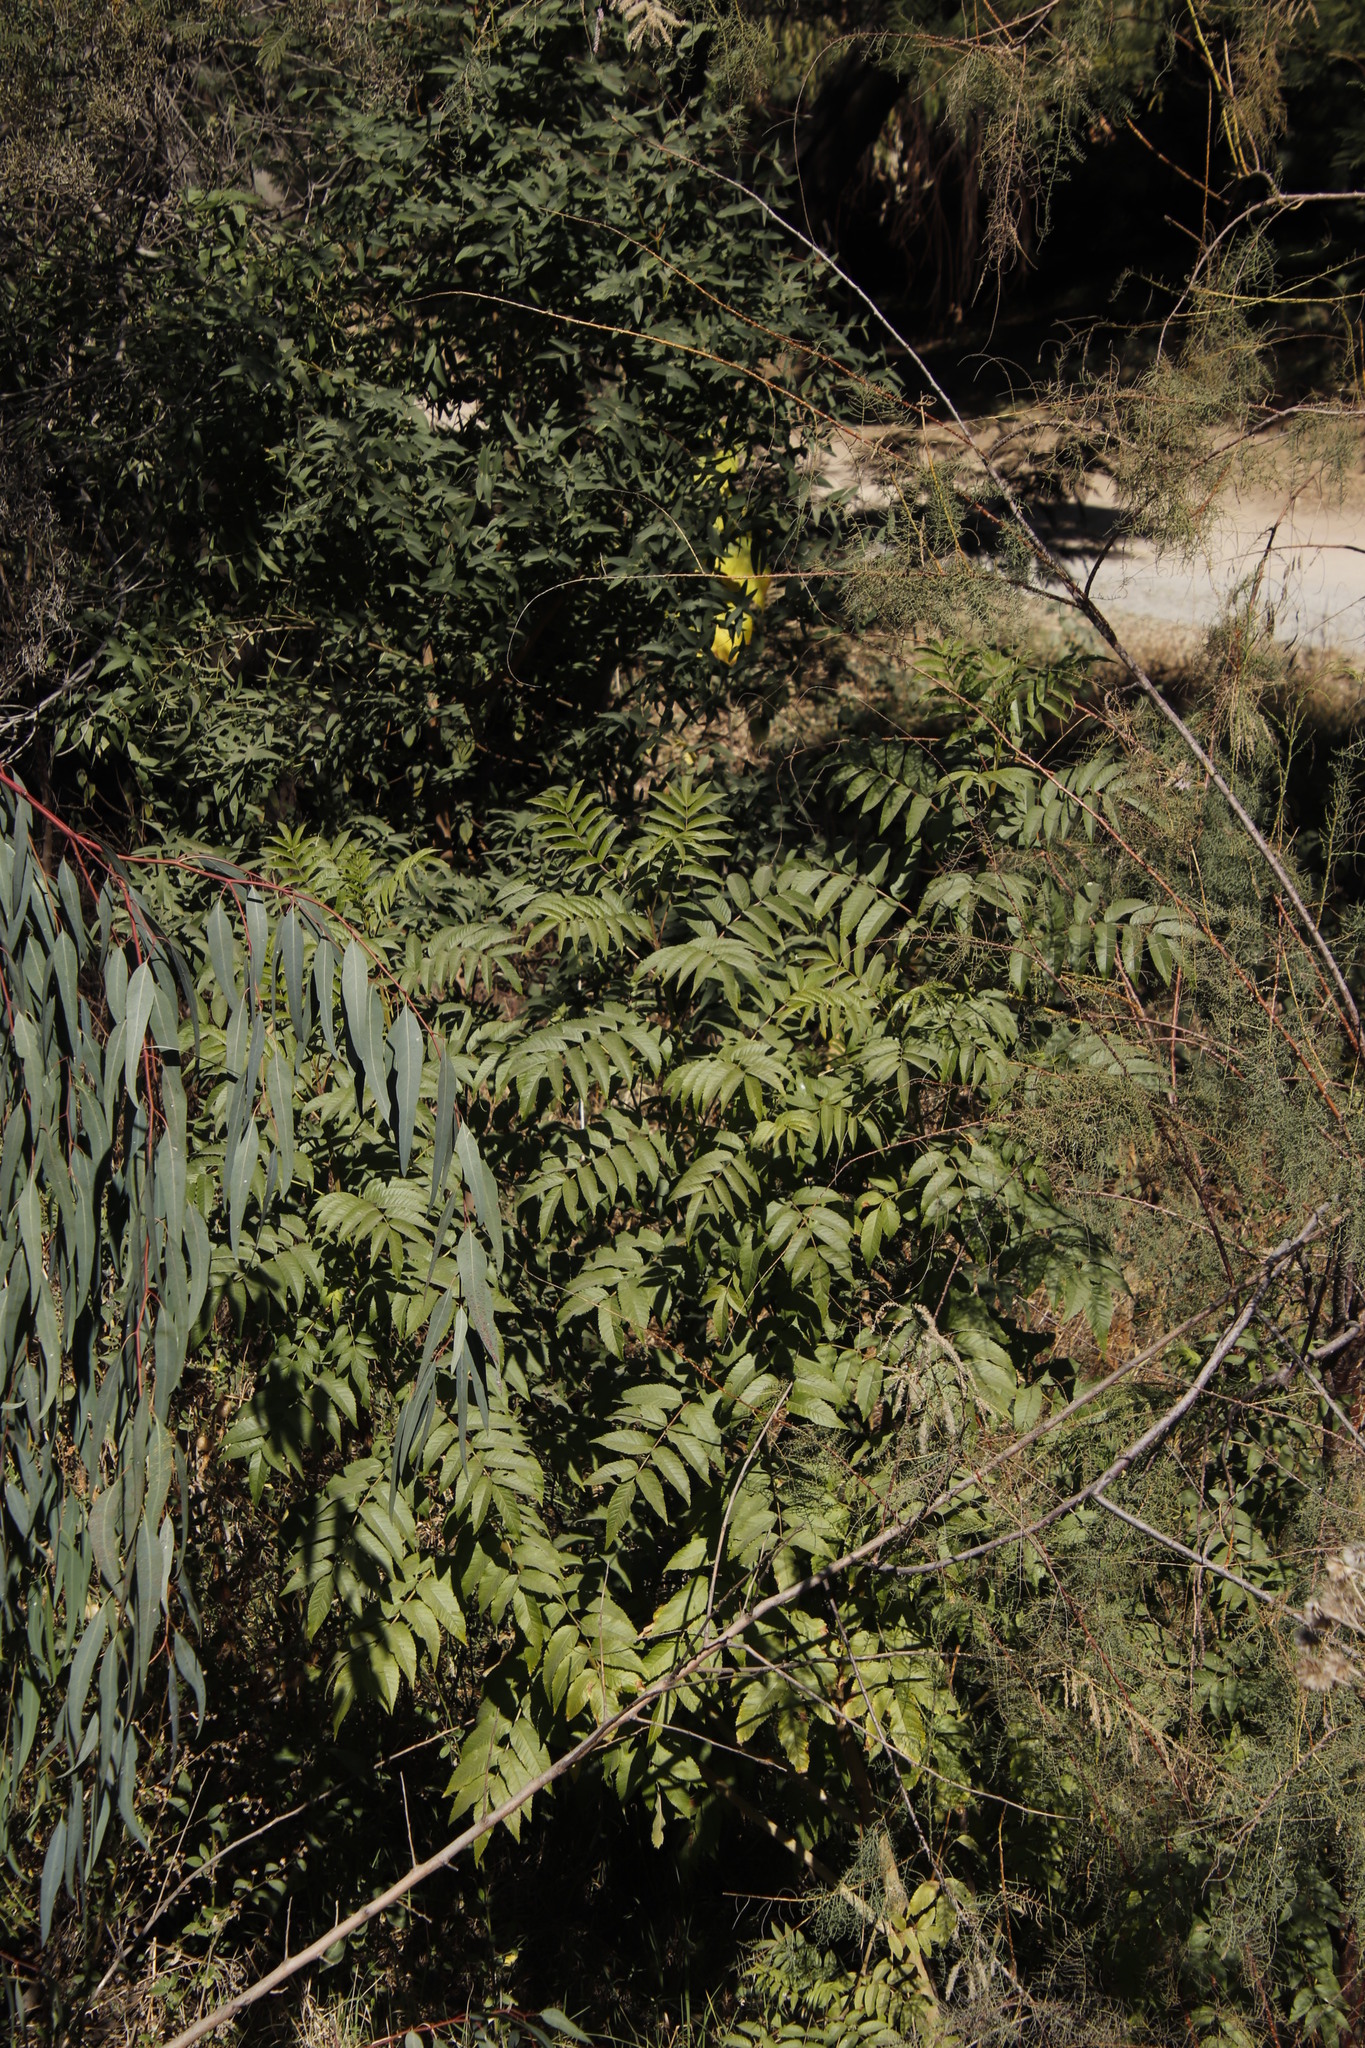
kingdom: Plantae
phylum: Tracheophyta
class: Magnoliopsida
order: Lamiales
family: Bignoniaceae
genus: Tecoma
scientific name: Tecoma stans
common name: Yellow trumpetbush
